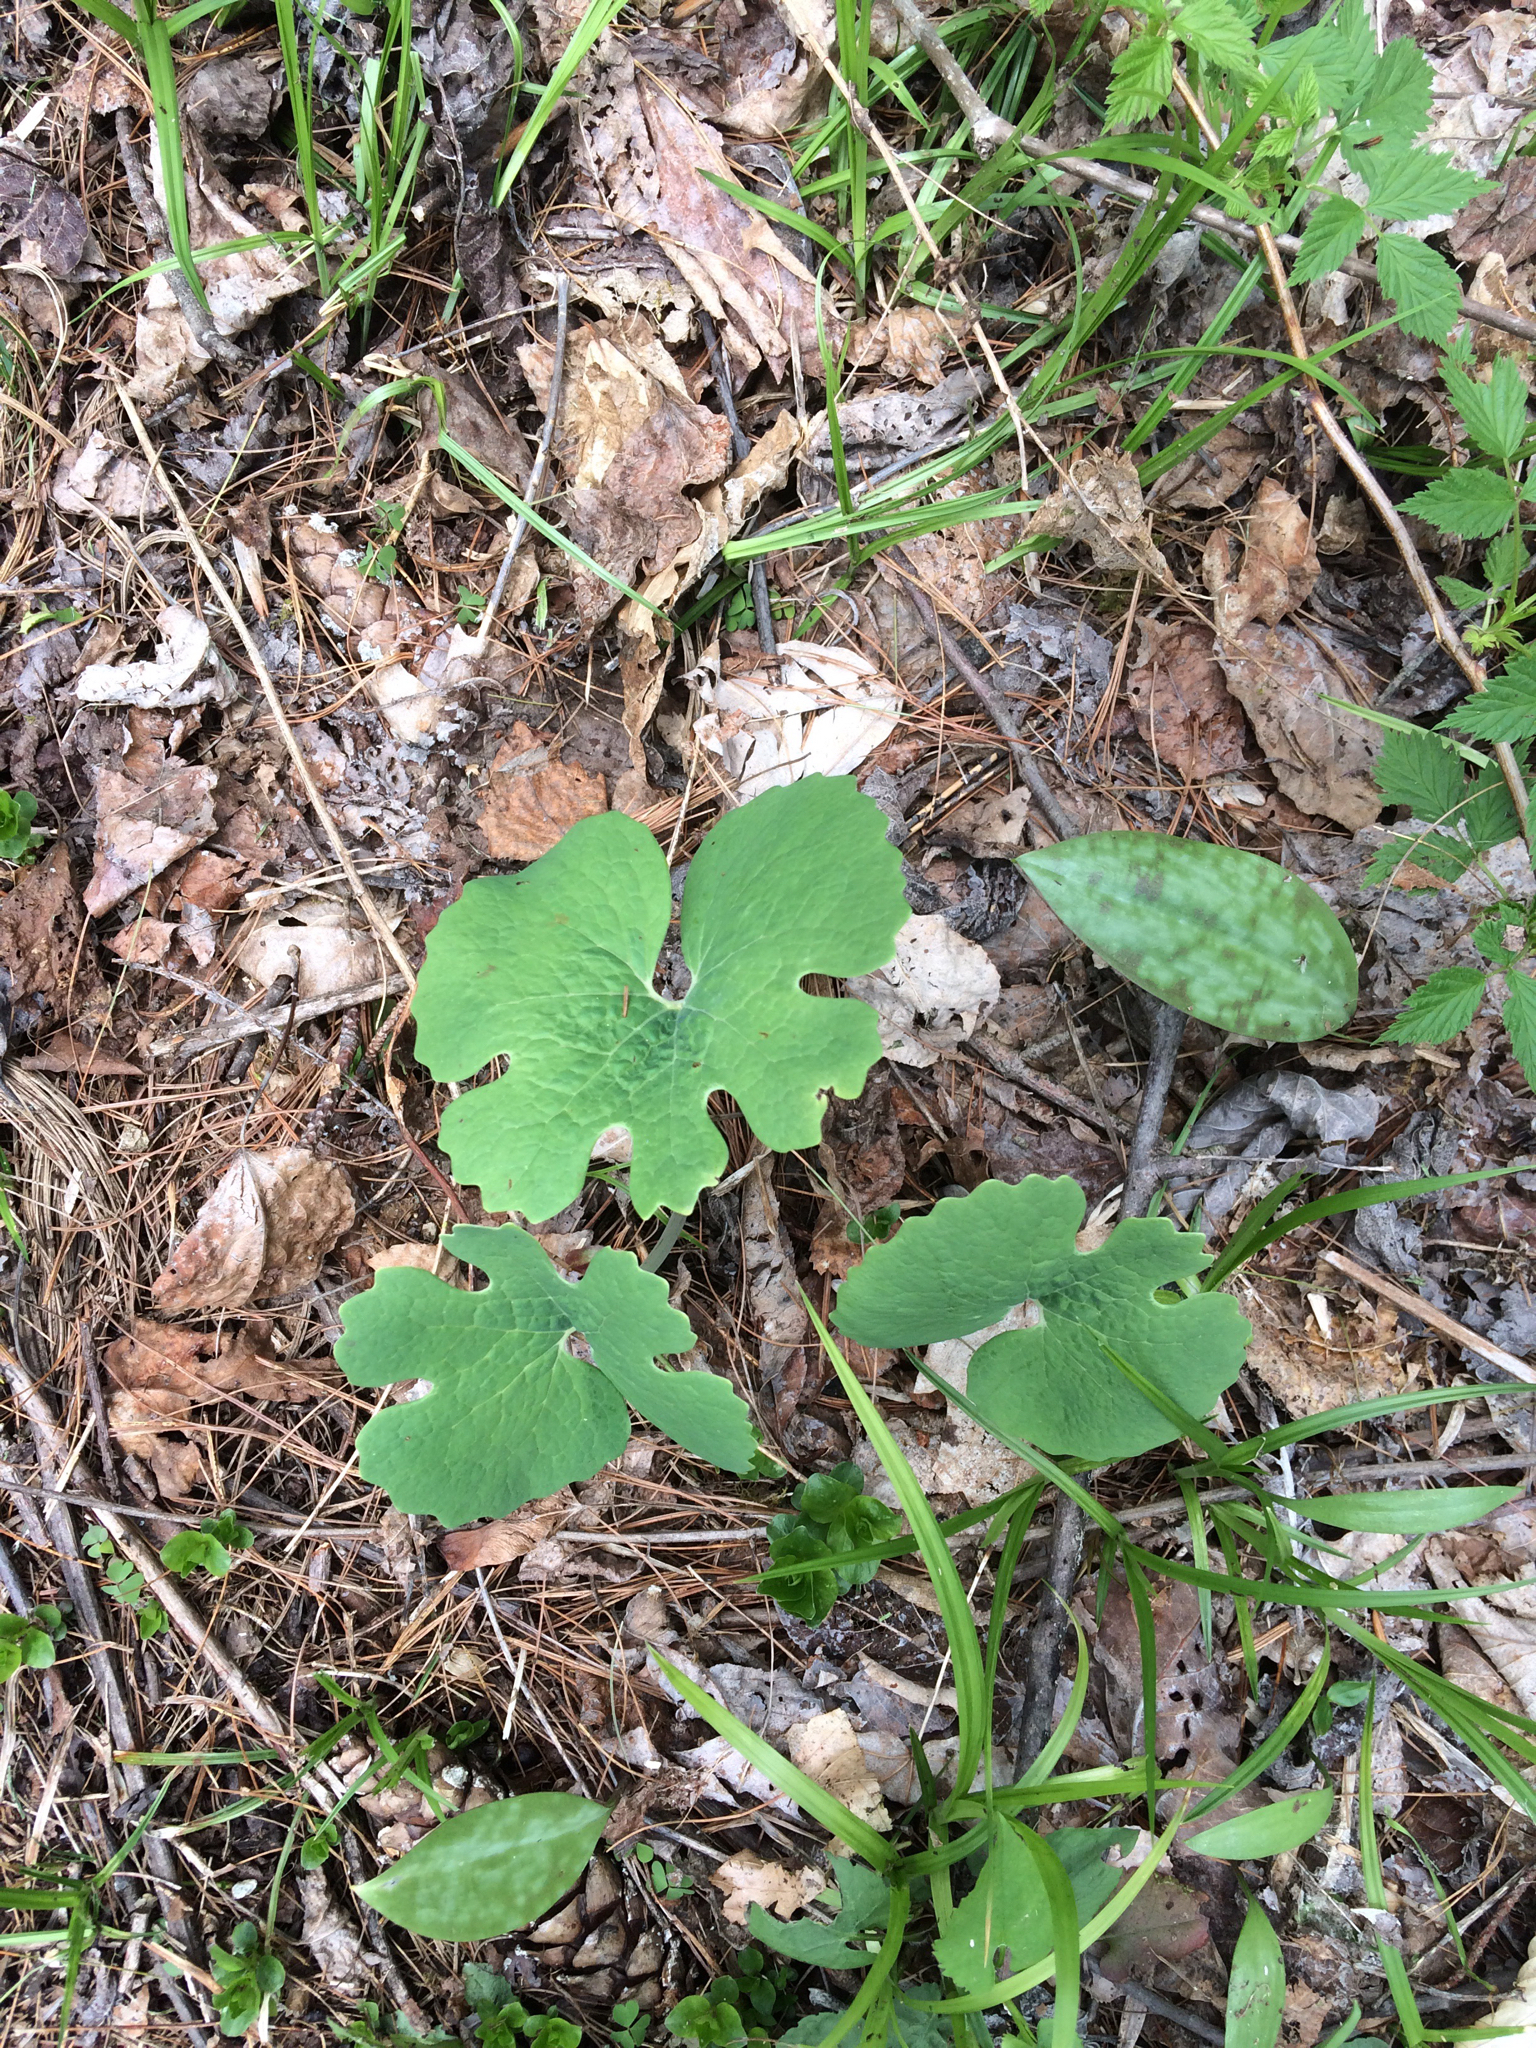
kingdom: Plantae
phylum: Tracheophyta
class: Magnoliopsida
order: Ranunculales
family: Papaveraceae
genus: Sanguinaria
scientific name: Sanguinaria canadensis
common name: Bloodroot
